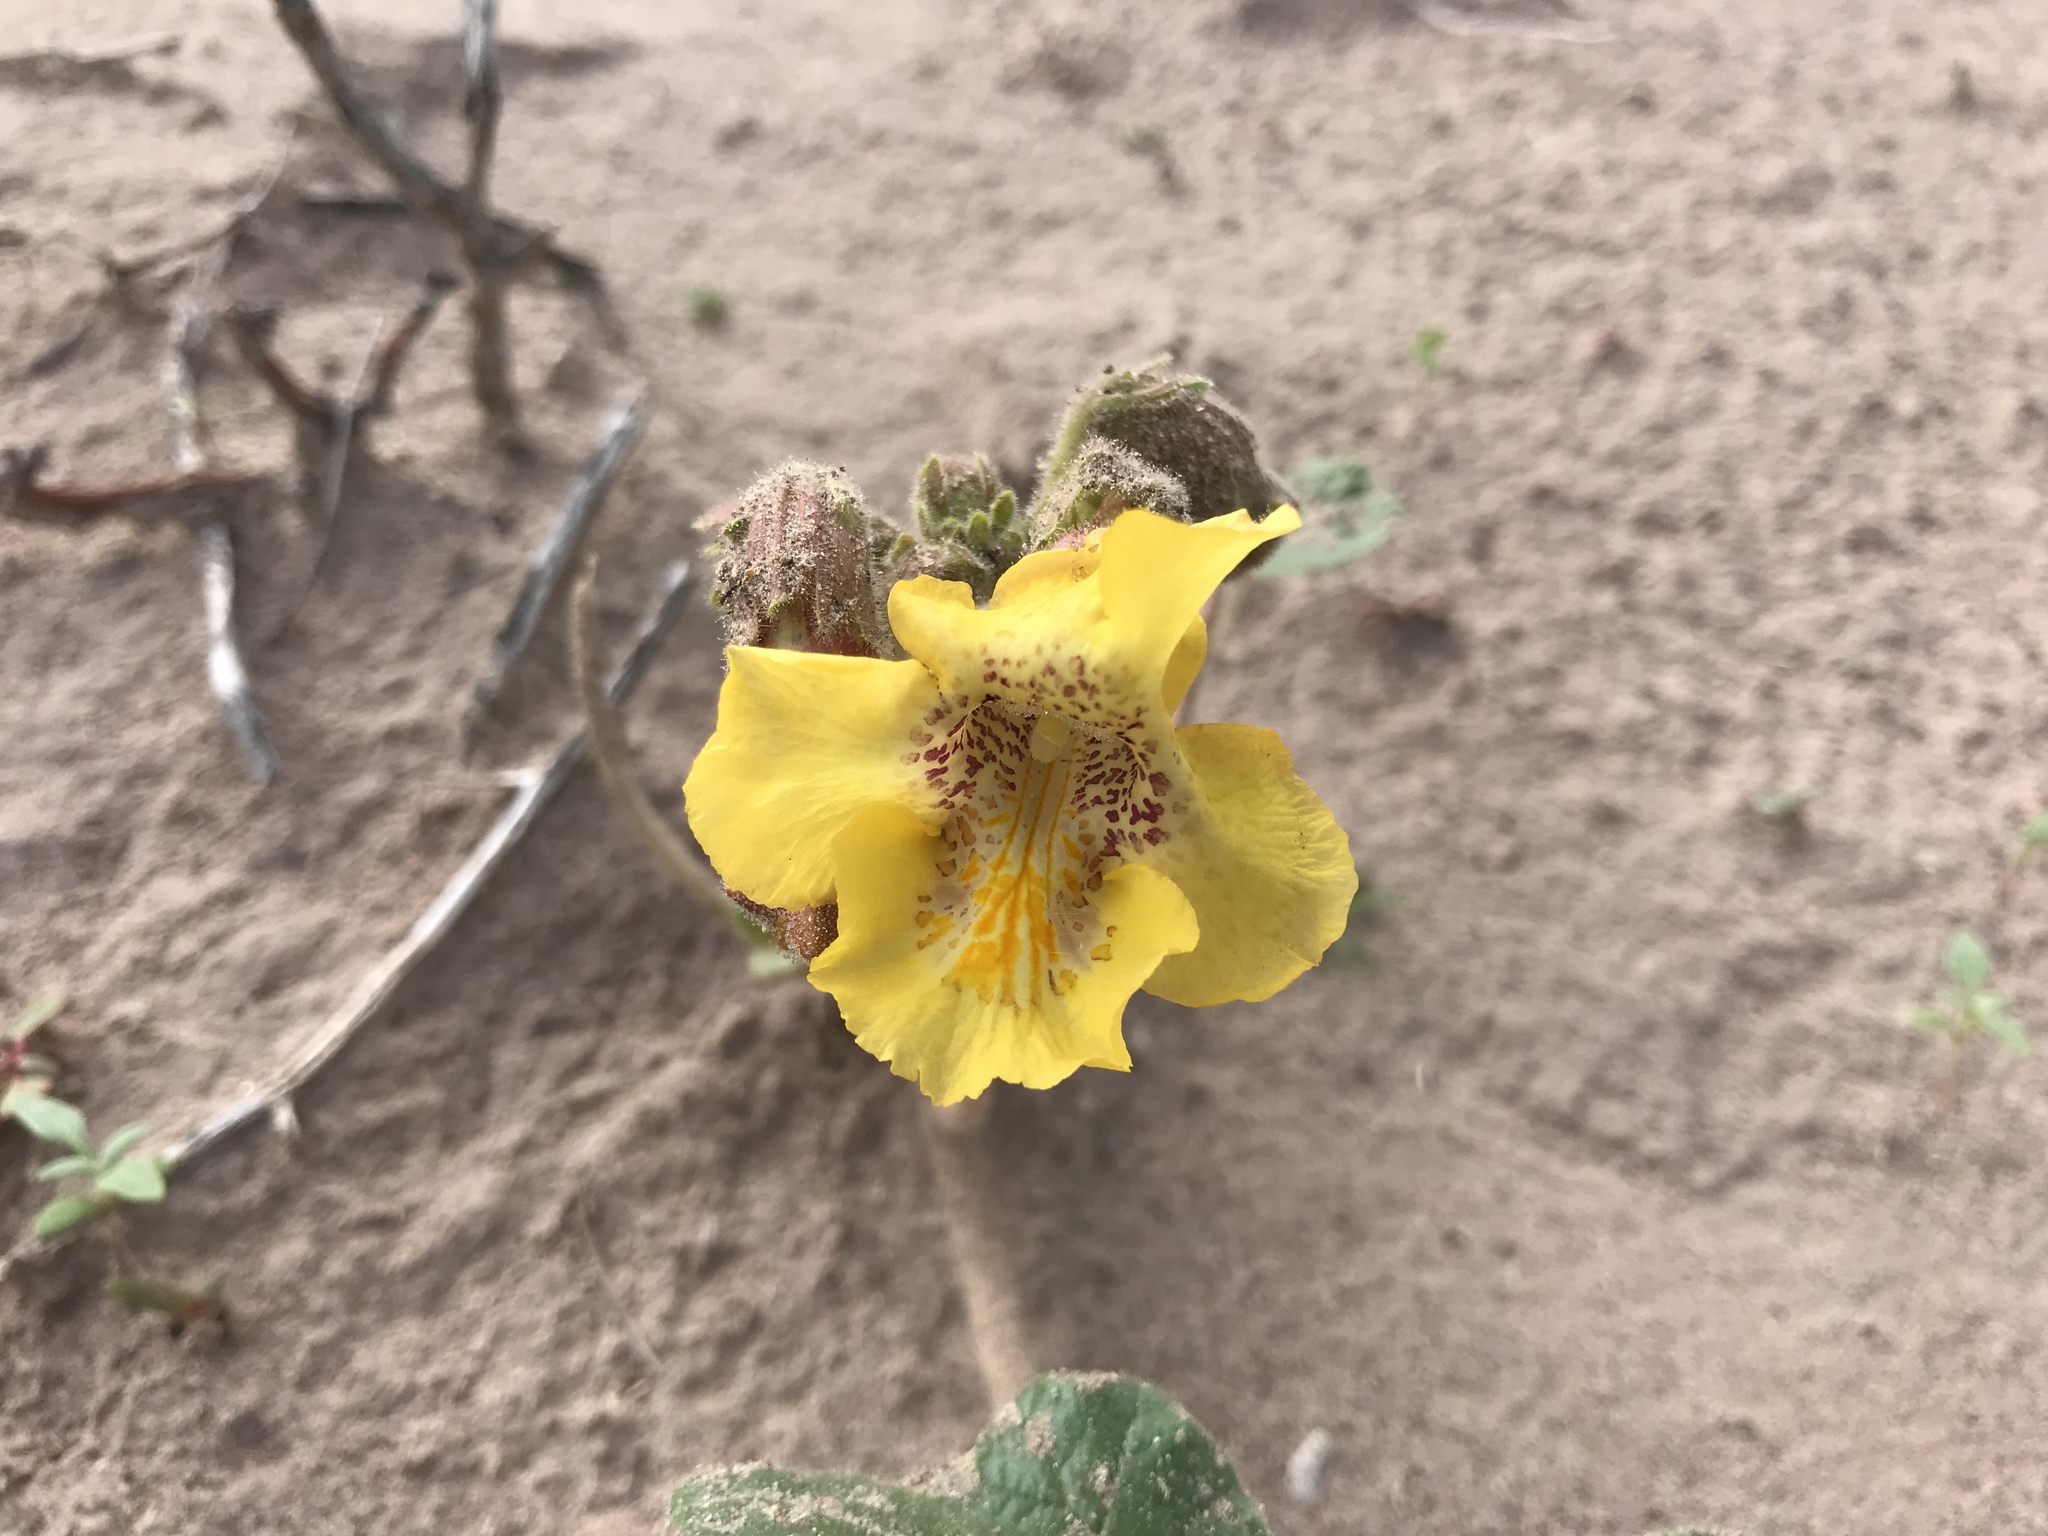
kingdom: Plantae
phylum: Tracheophyta
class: Magnoliopsida
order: Lamiales
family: Martyniaceae
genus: Proboscidea
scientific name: Proboscidea althaeifolia
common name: Desert unicorn-plant
